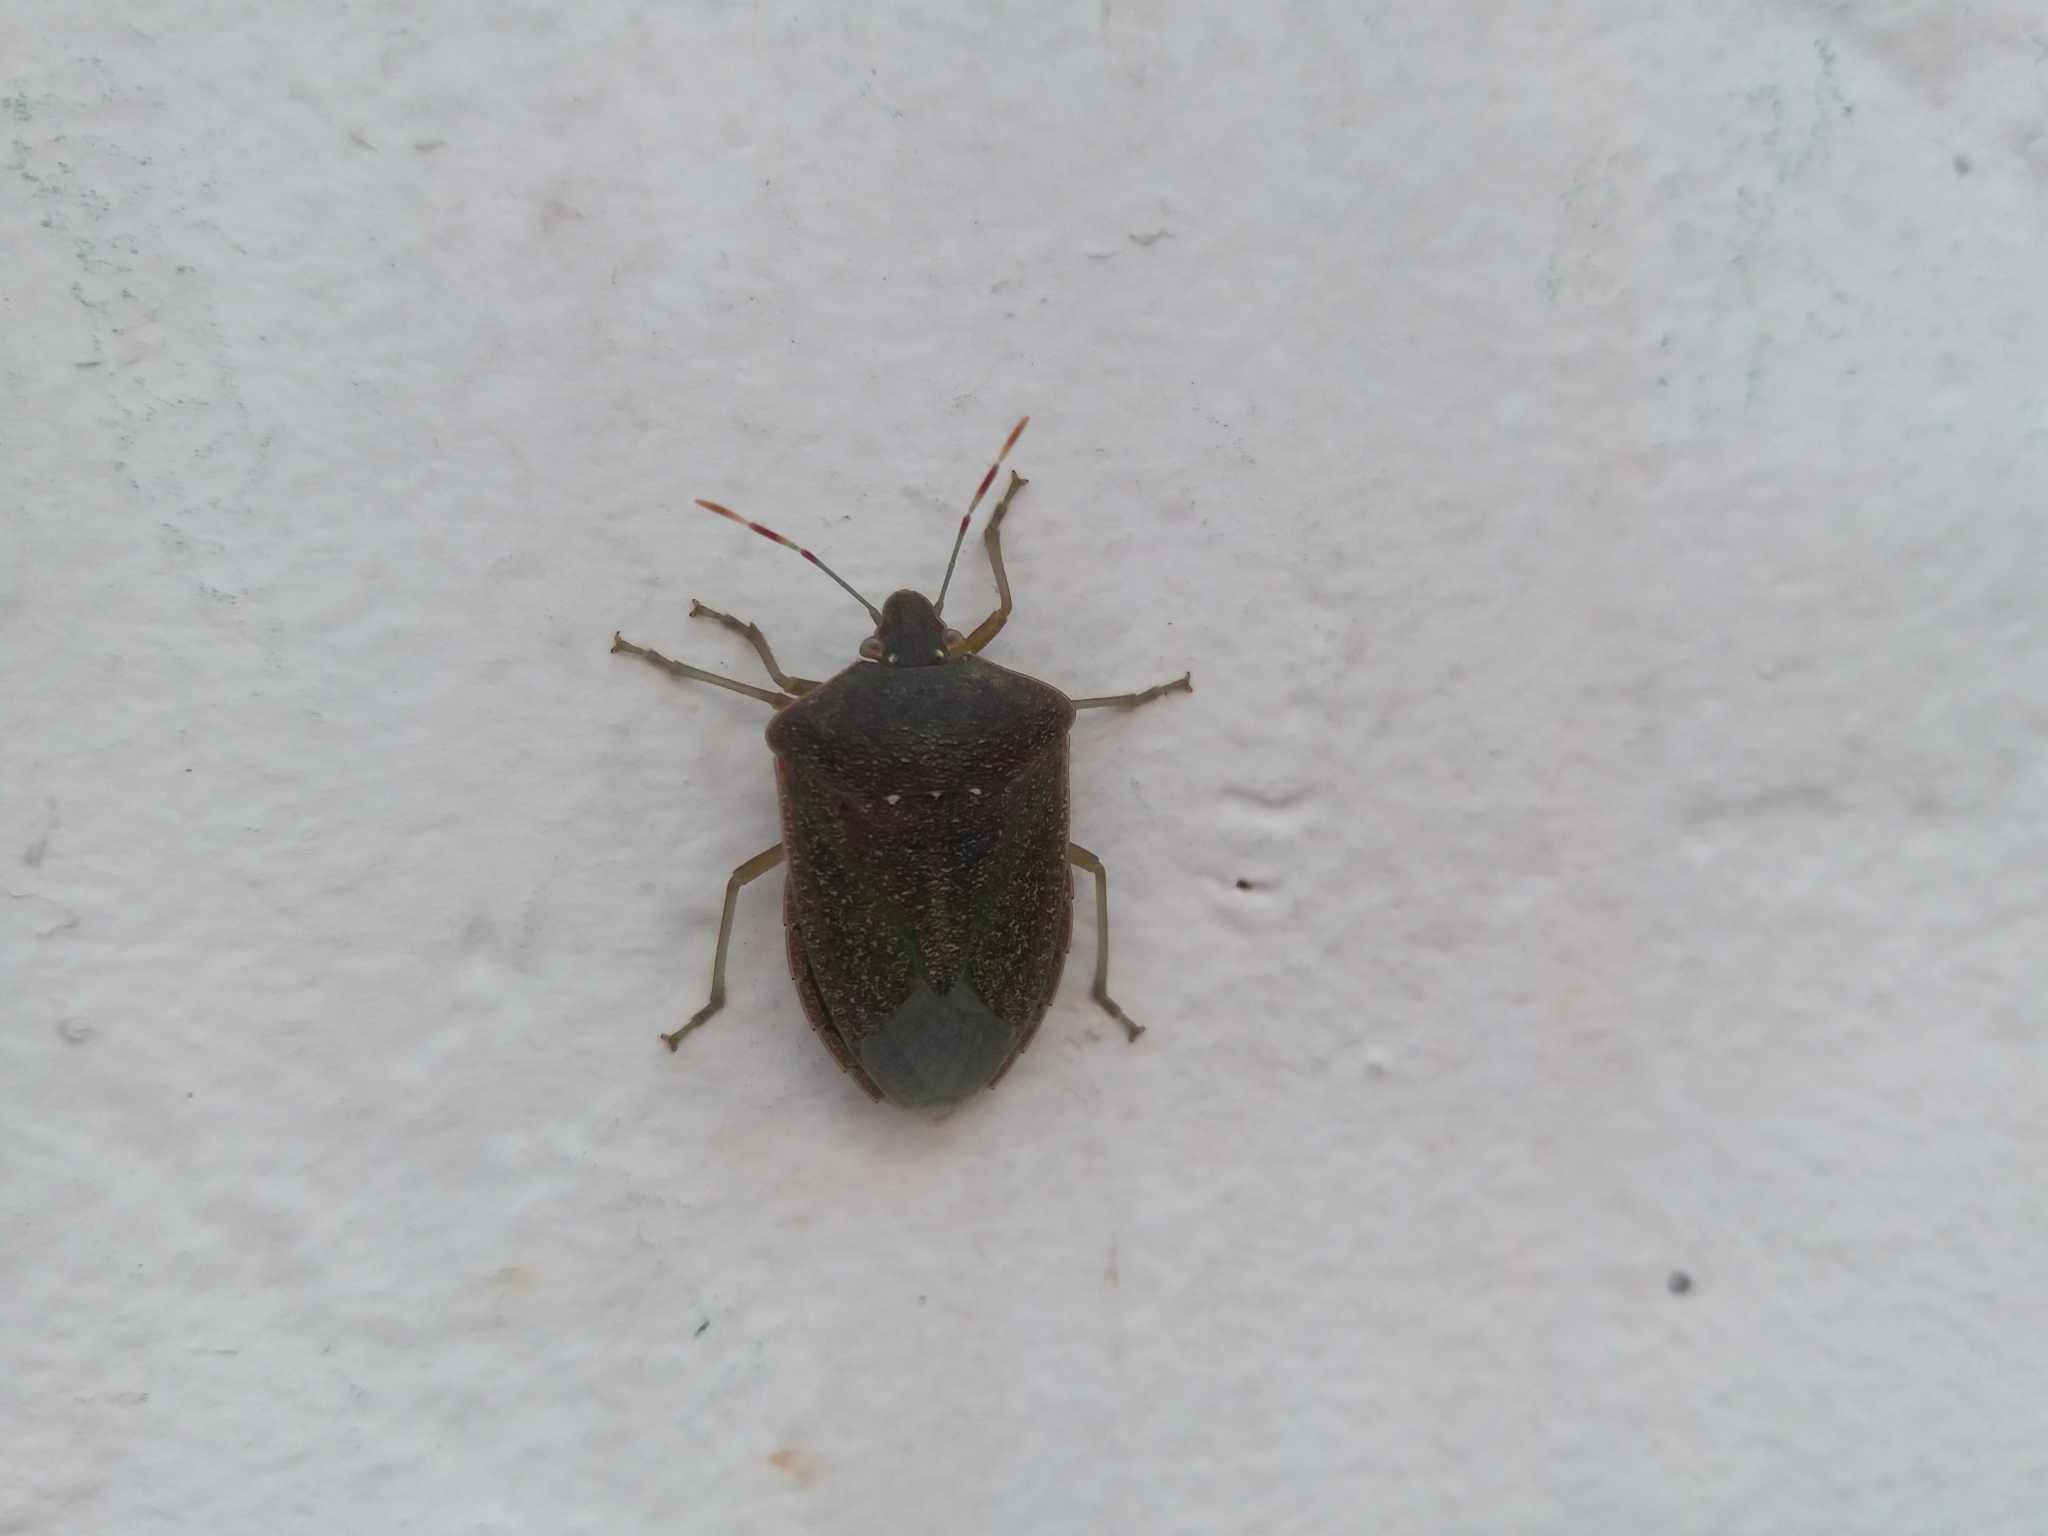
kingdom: Animalia
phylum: Arthropoda
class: Insecta
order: Hemiptera
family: Pentatomidae
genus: Nezara
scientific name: Nezara viridula
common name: Southern green stink bug
